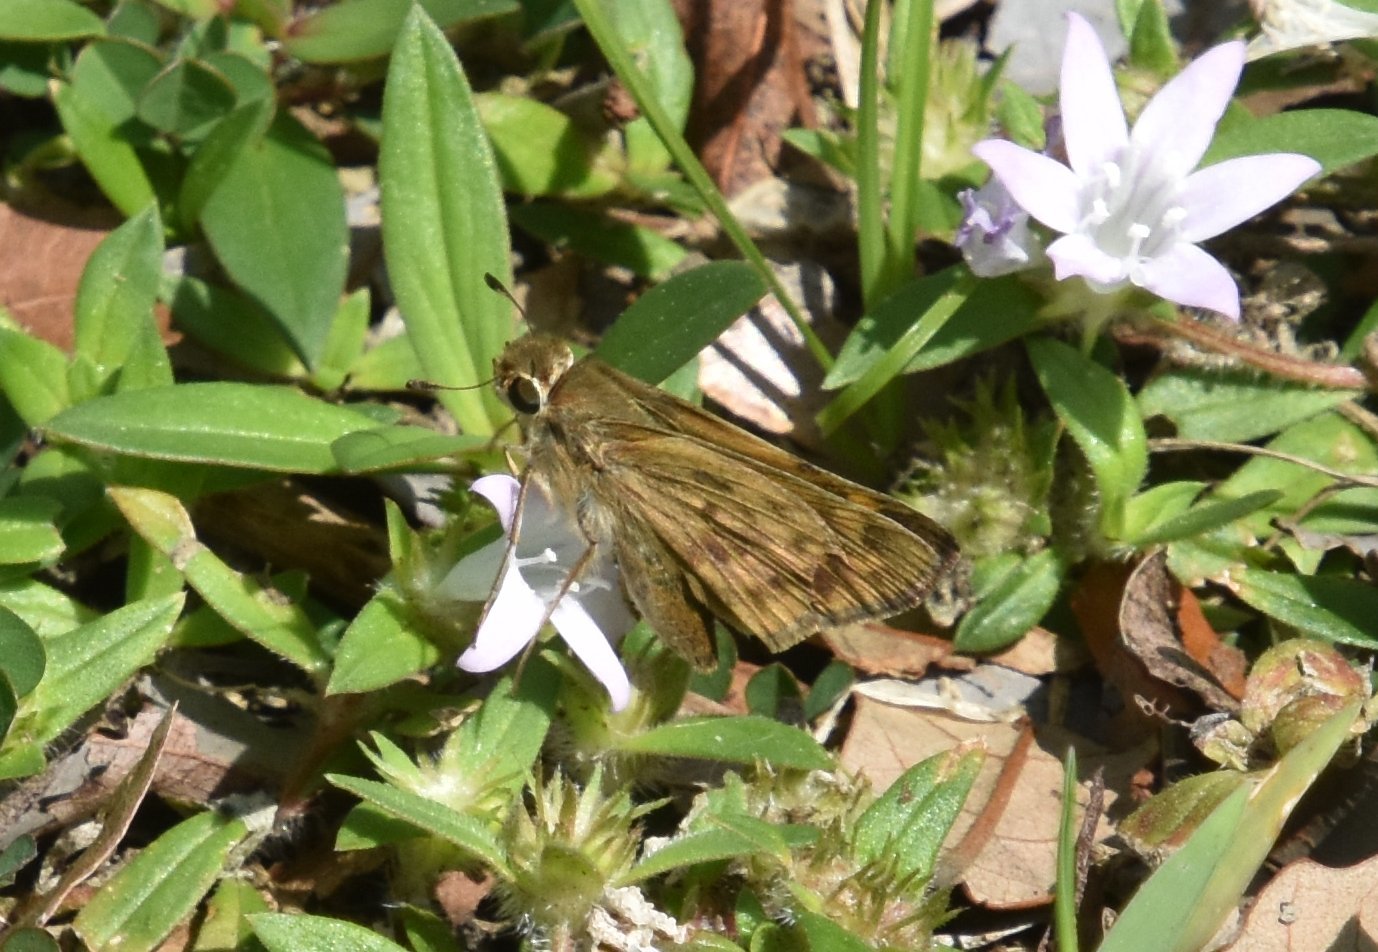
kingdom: Animalia
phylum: Arthropoda
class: Insecta
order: Lepidoptera
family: Hesperiidae
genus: Hylephila
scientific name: Hylephila phyleus
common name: Fiery skipper
